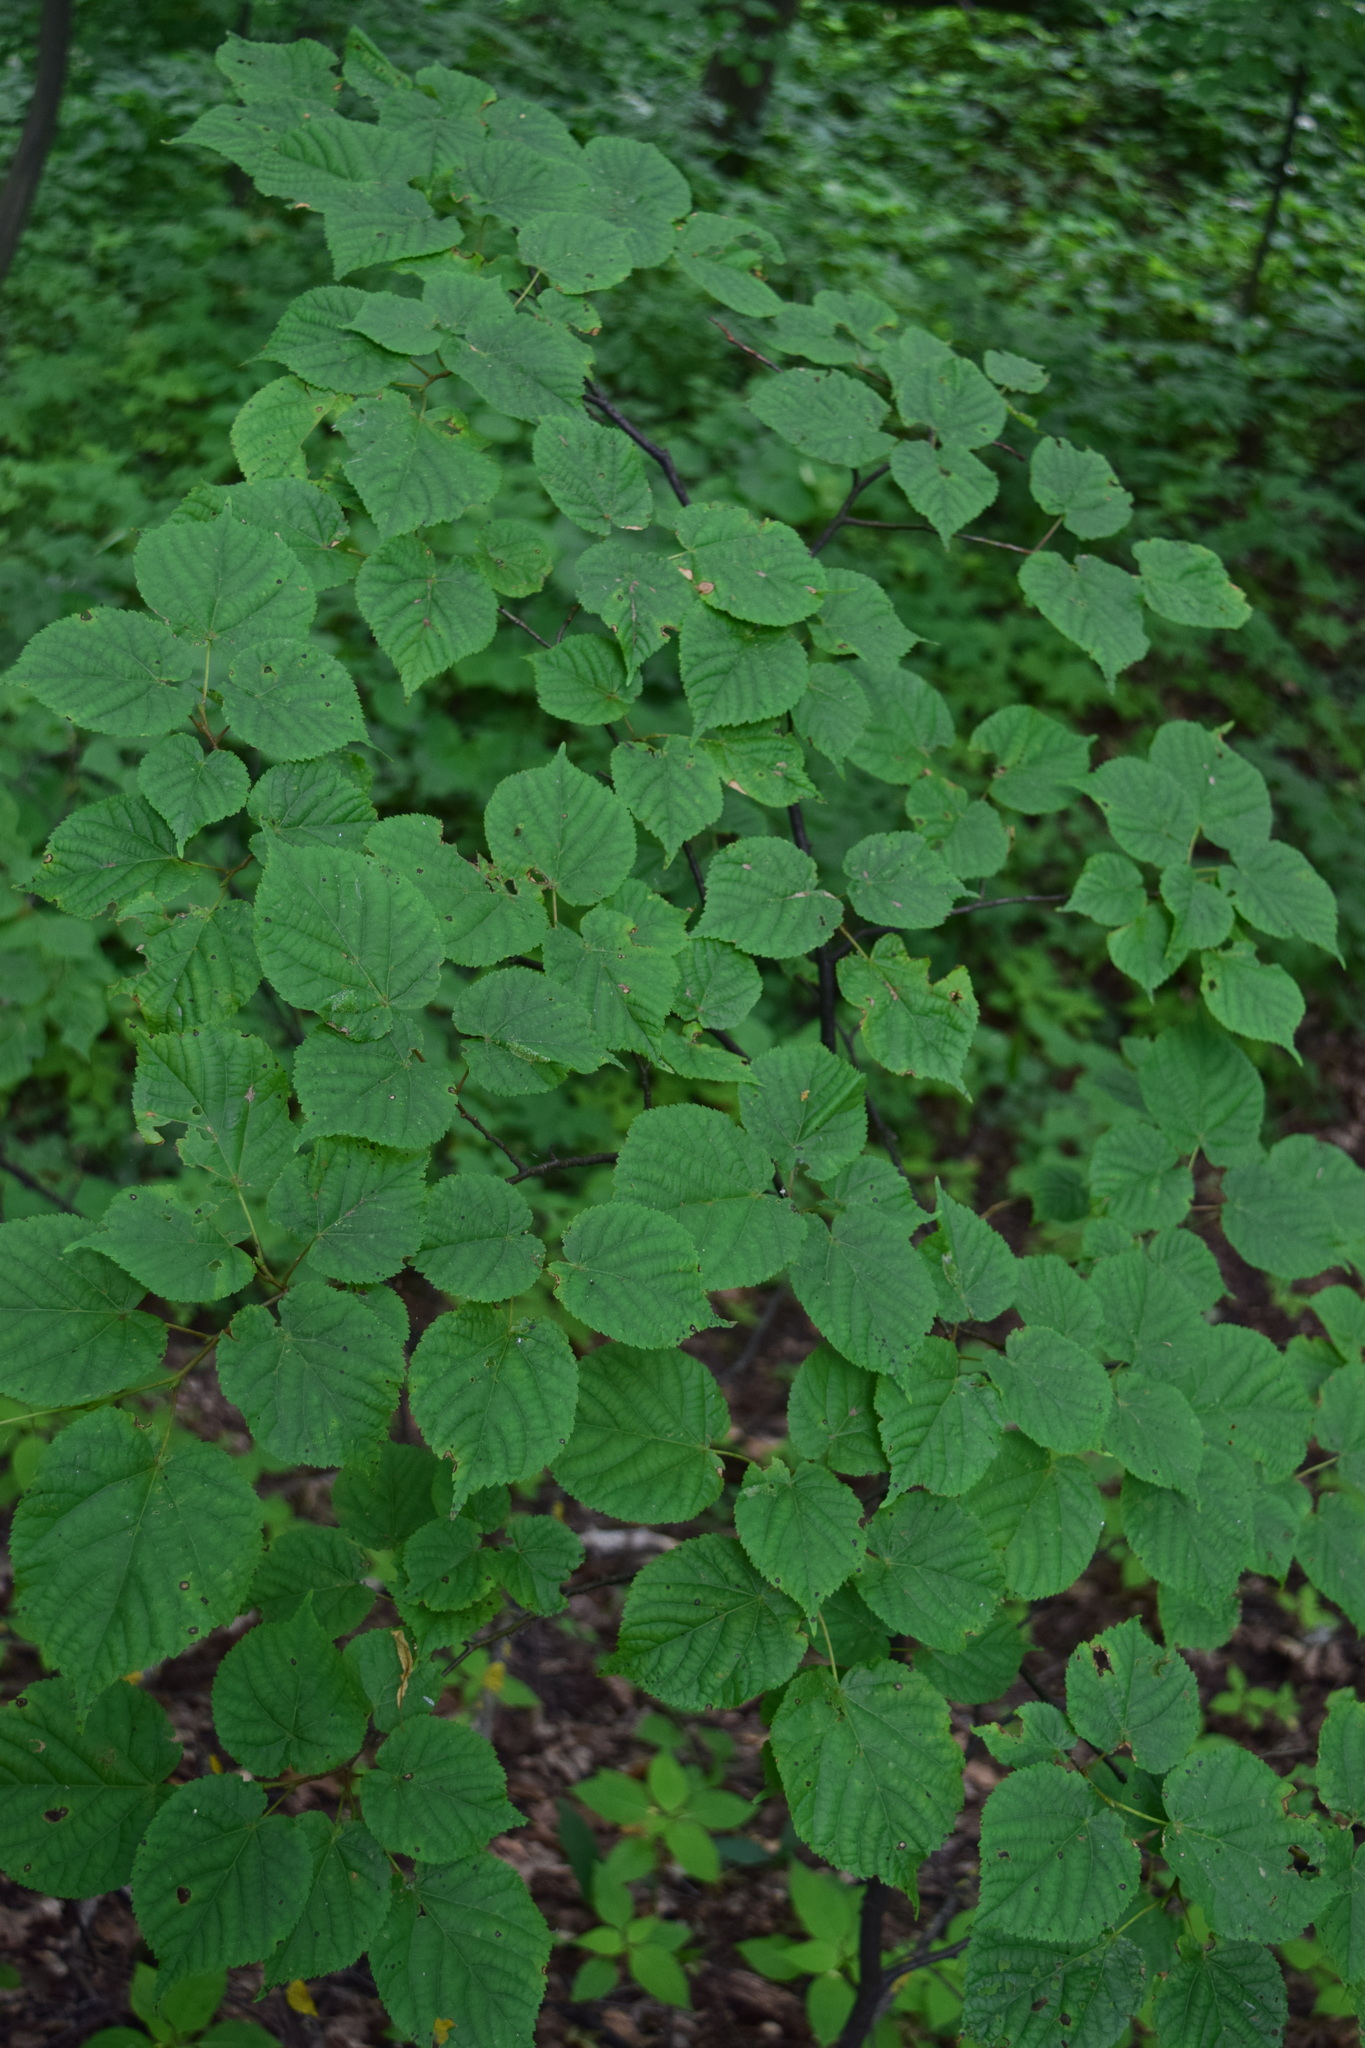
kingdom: Plantae
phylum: Tracheophyta
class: Magnoliopsida
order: Malvales
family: Malvaceae
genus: Tilia
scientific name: Tilia cordata
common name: Small-leaved lime
